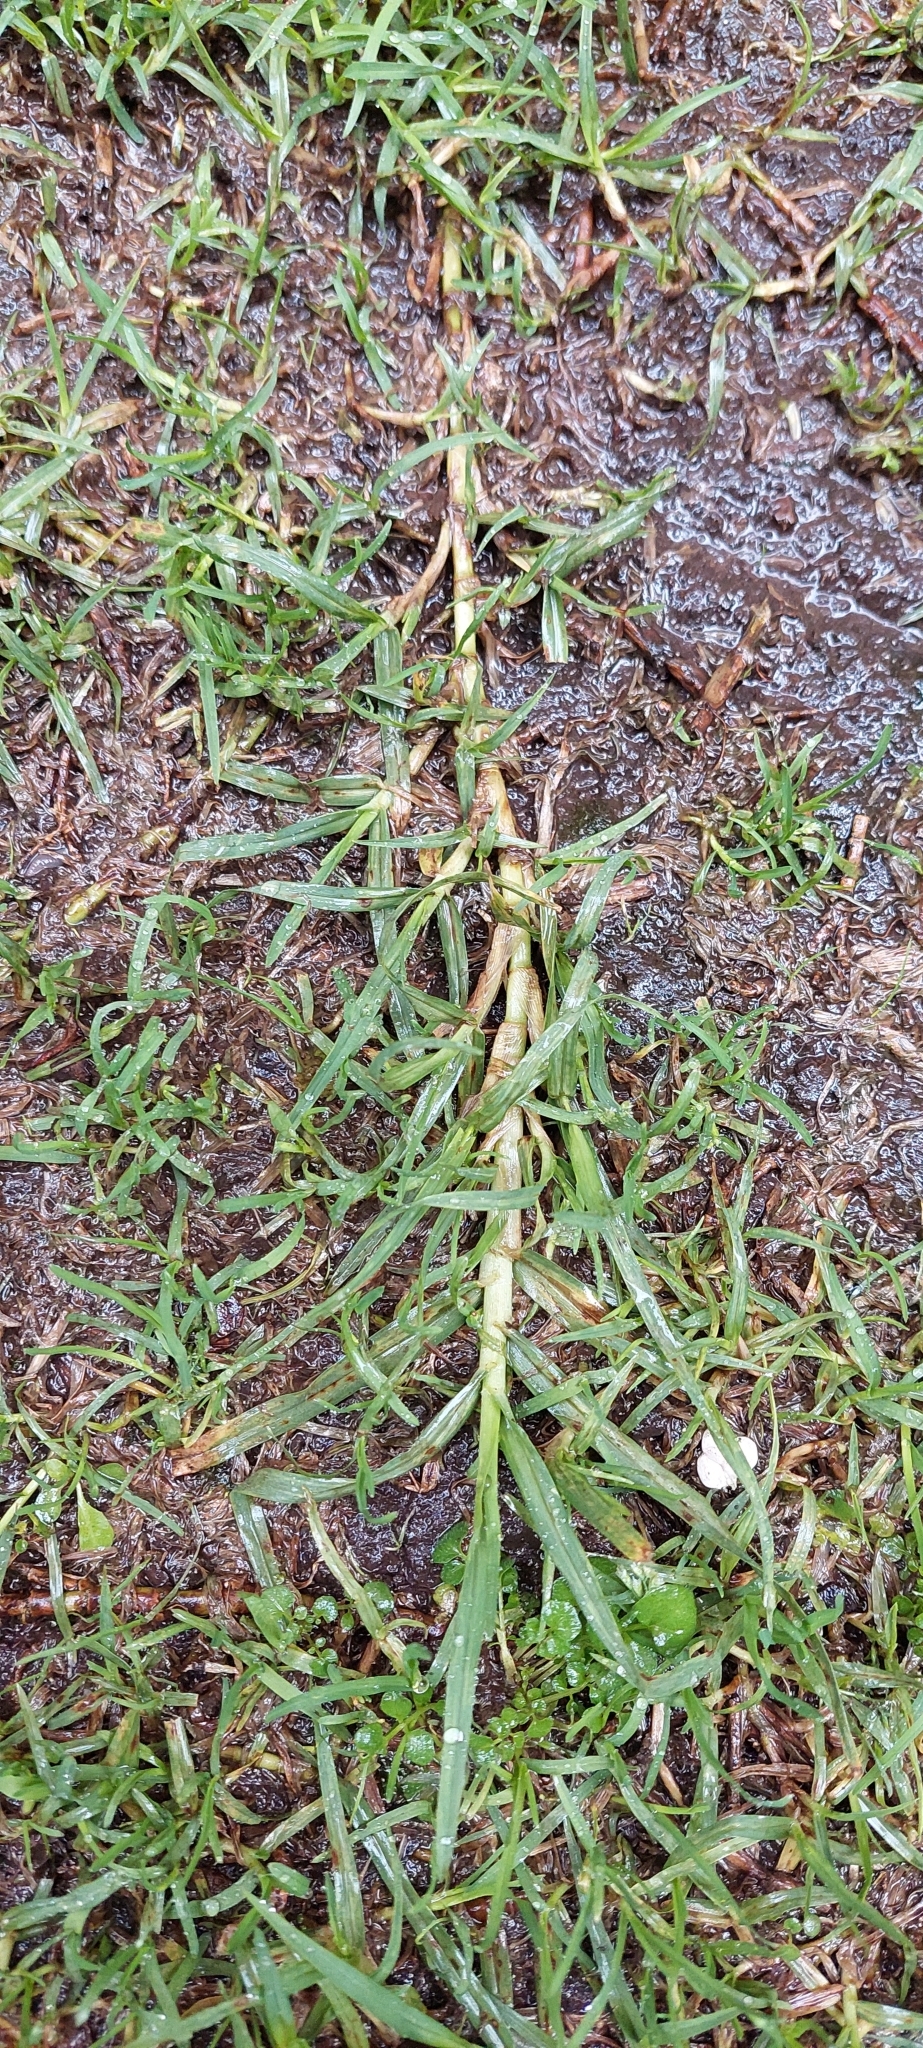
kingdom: Plantae
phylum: Tracheophyta
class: Liliopsida
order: Poales
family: Poaceae
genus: Cenchrus
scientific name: Cenchrus clandestinus
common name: Kikuyugrass
